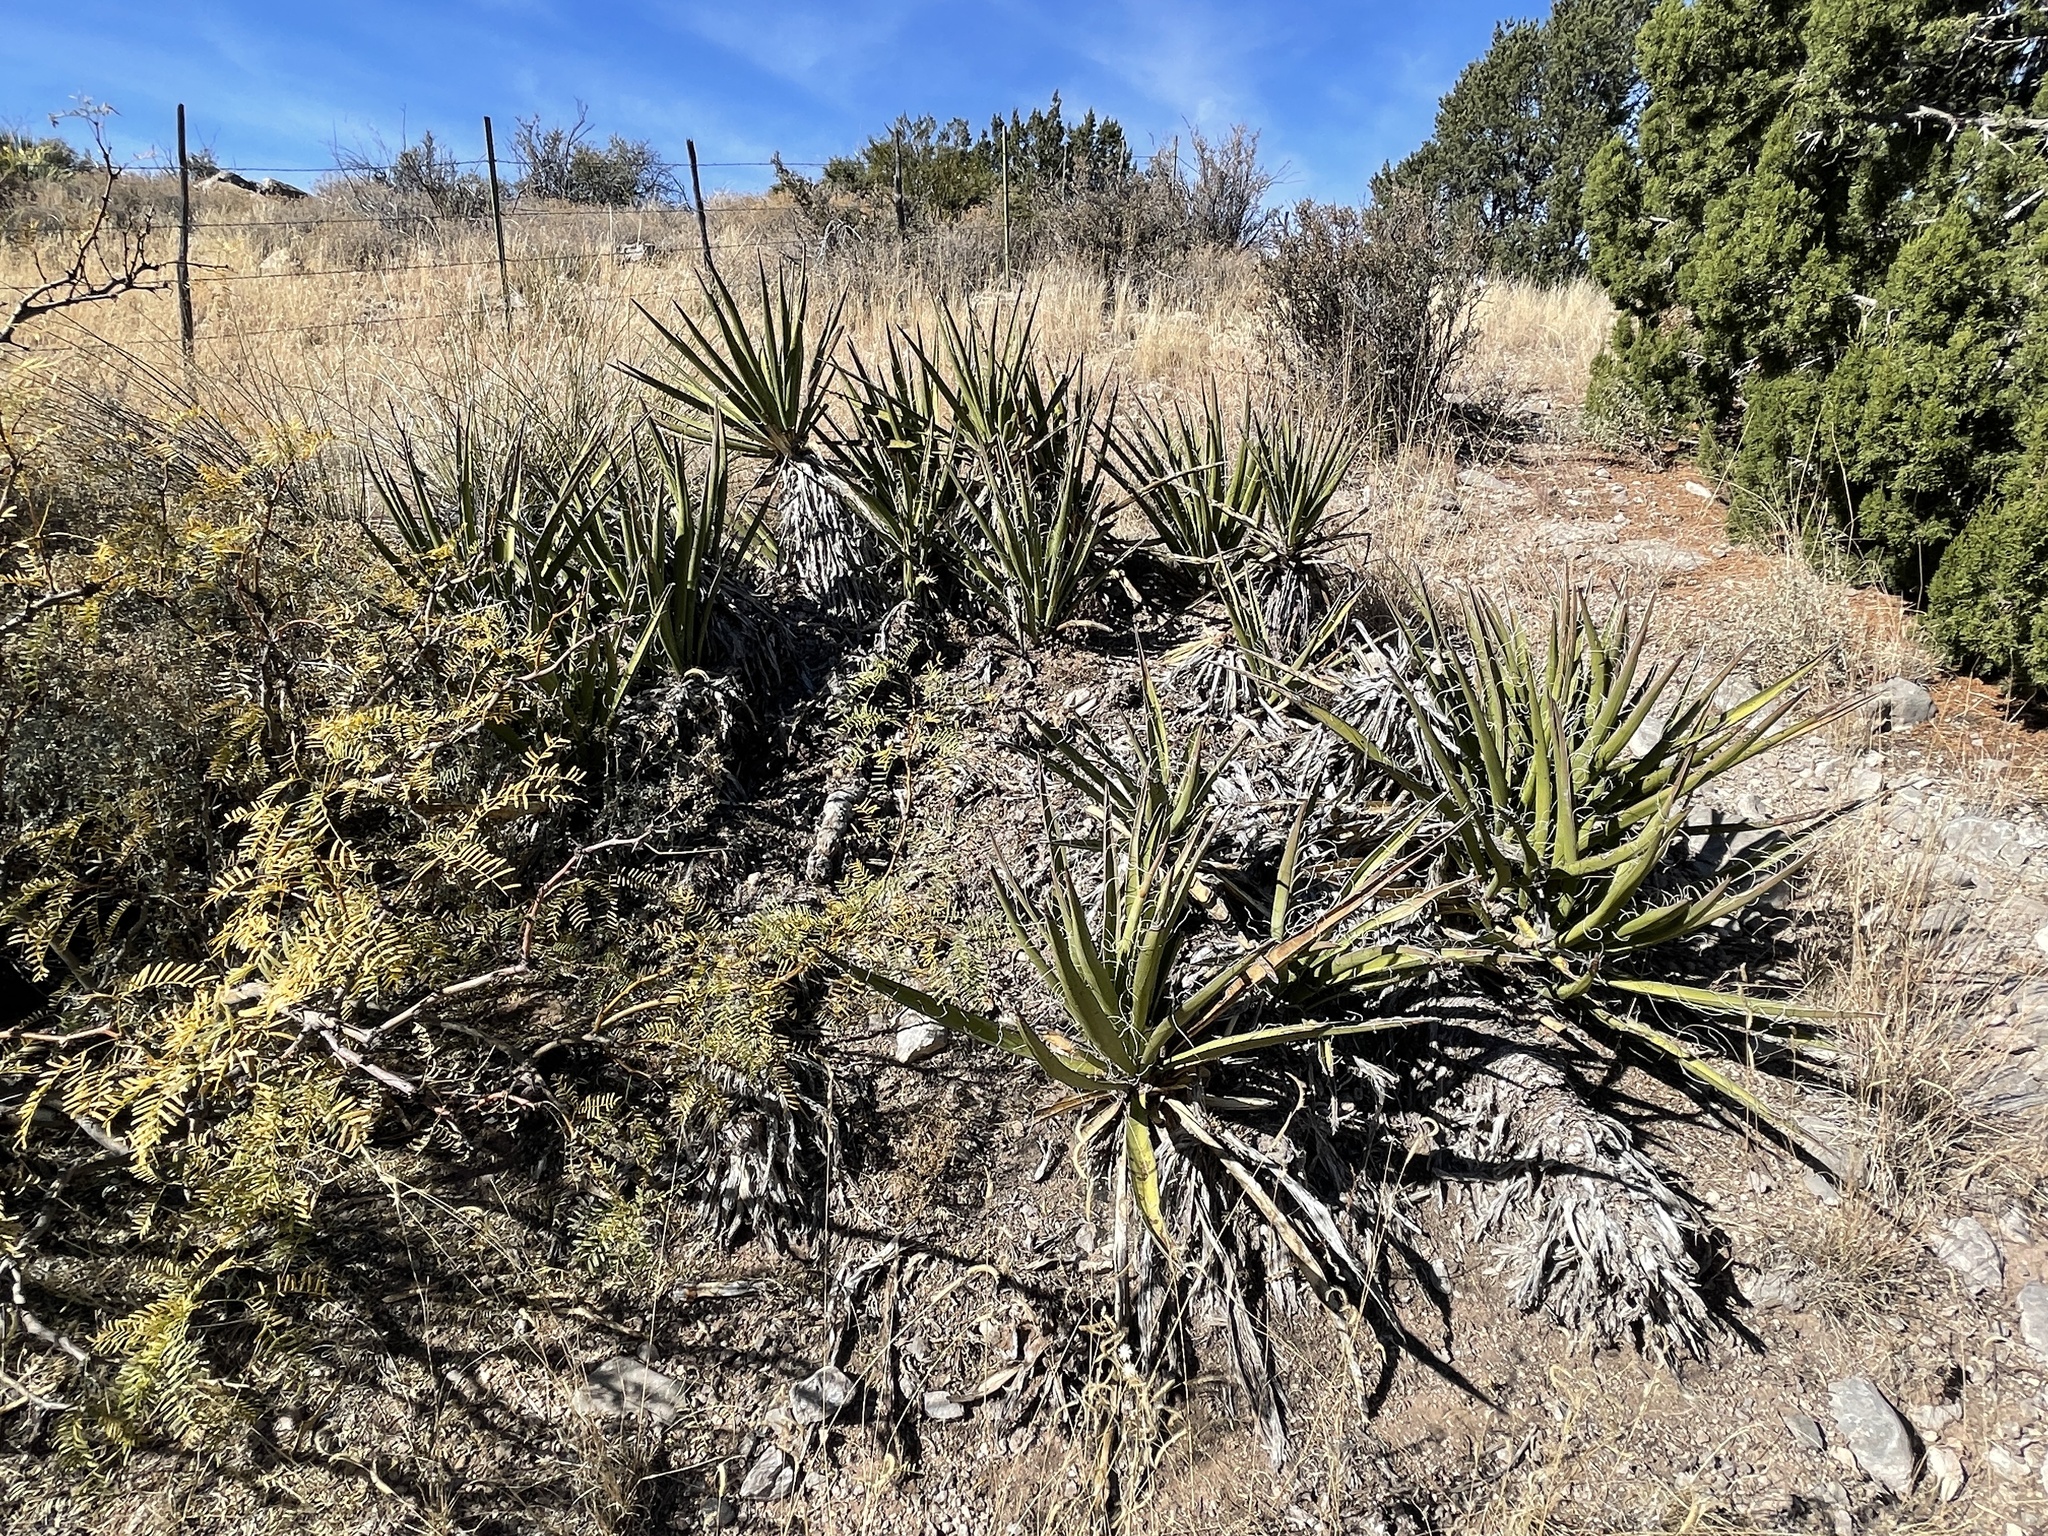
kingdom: Plantae
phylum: Tracheophyta
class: Liliopsida
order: Asparagales
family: Asparagaceae
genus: Yucca
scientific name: Yucca baccata
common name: Banana yucca
